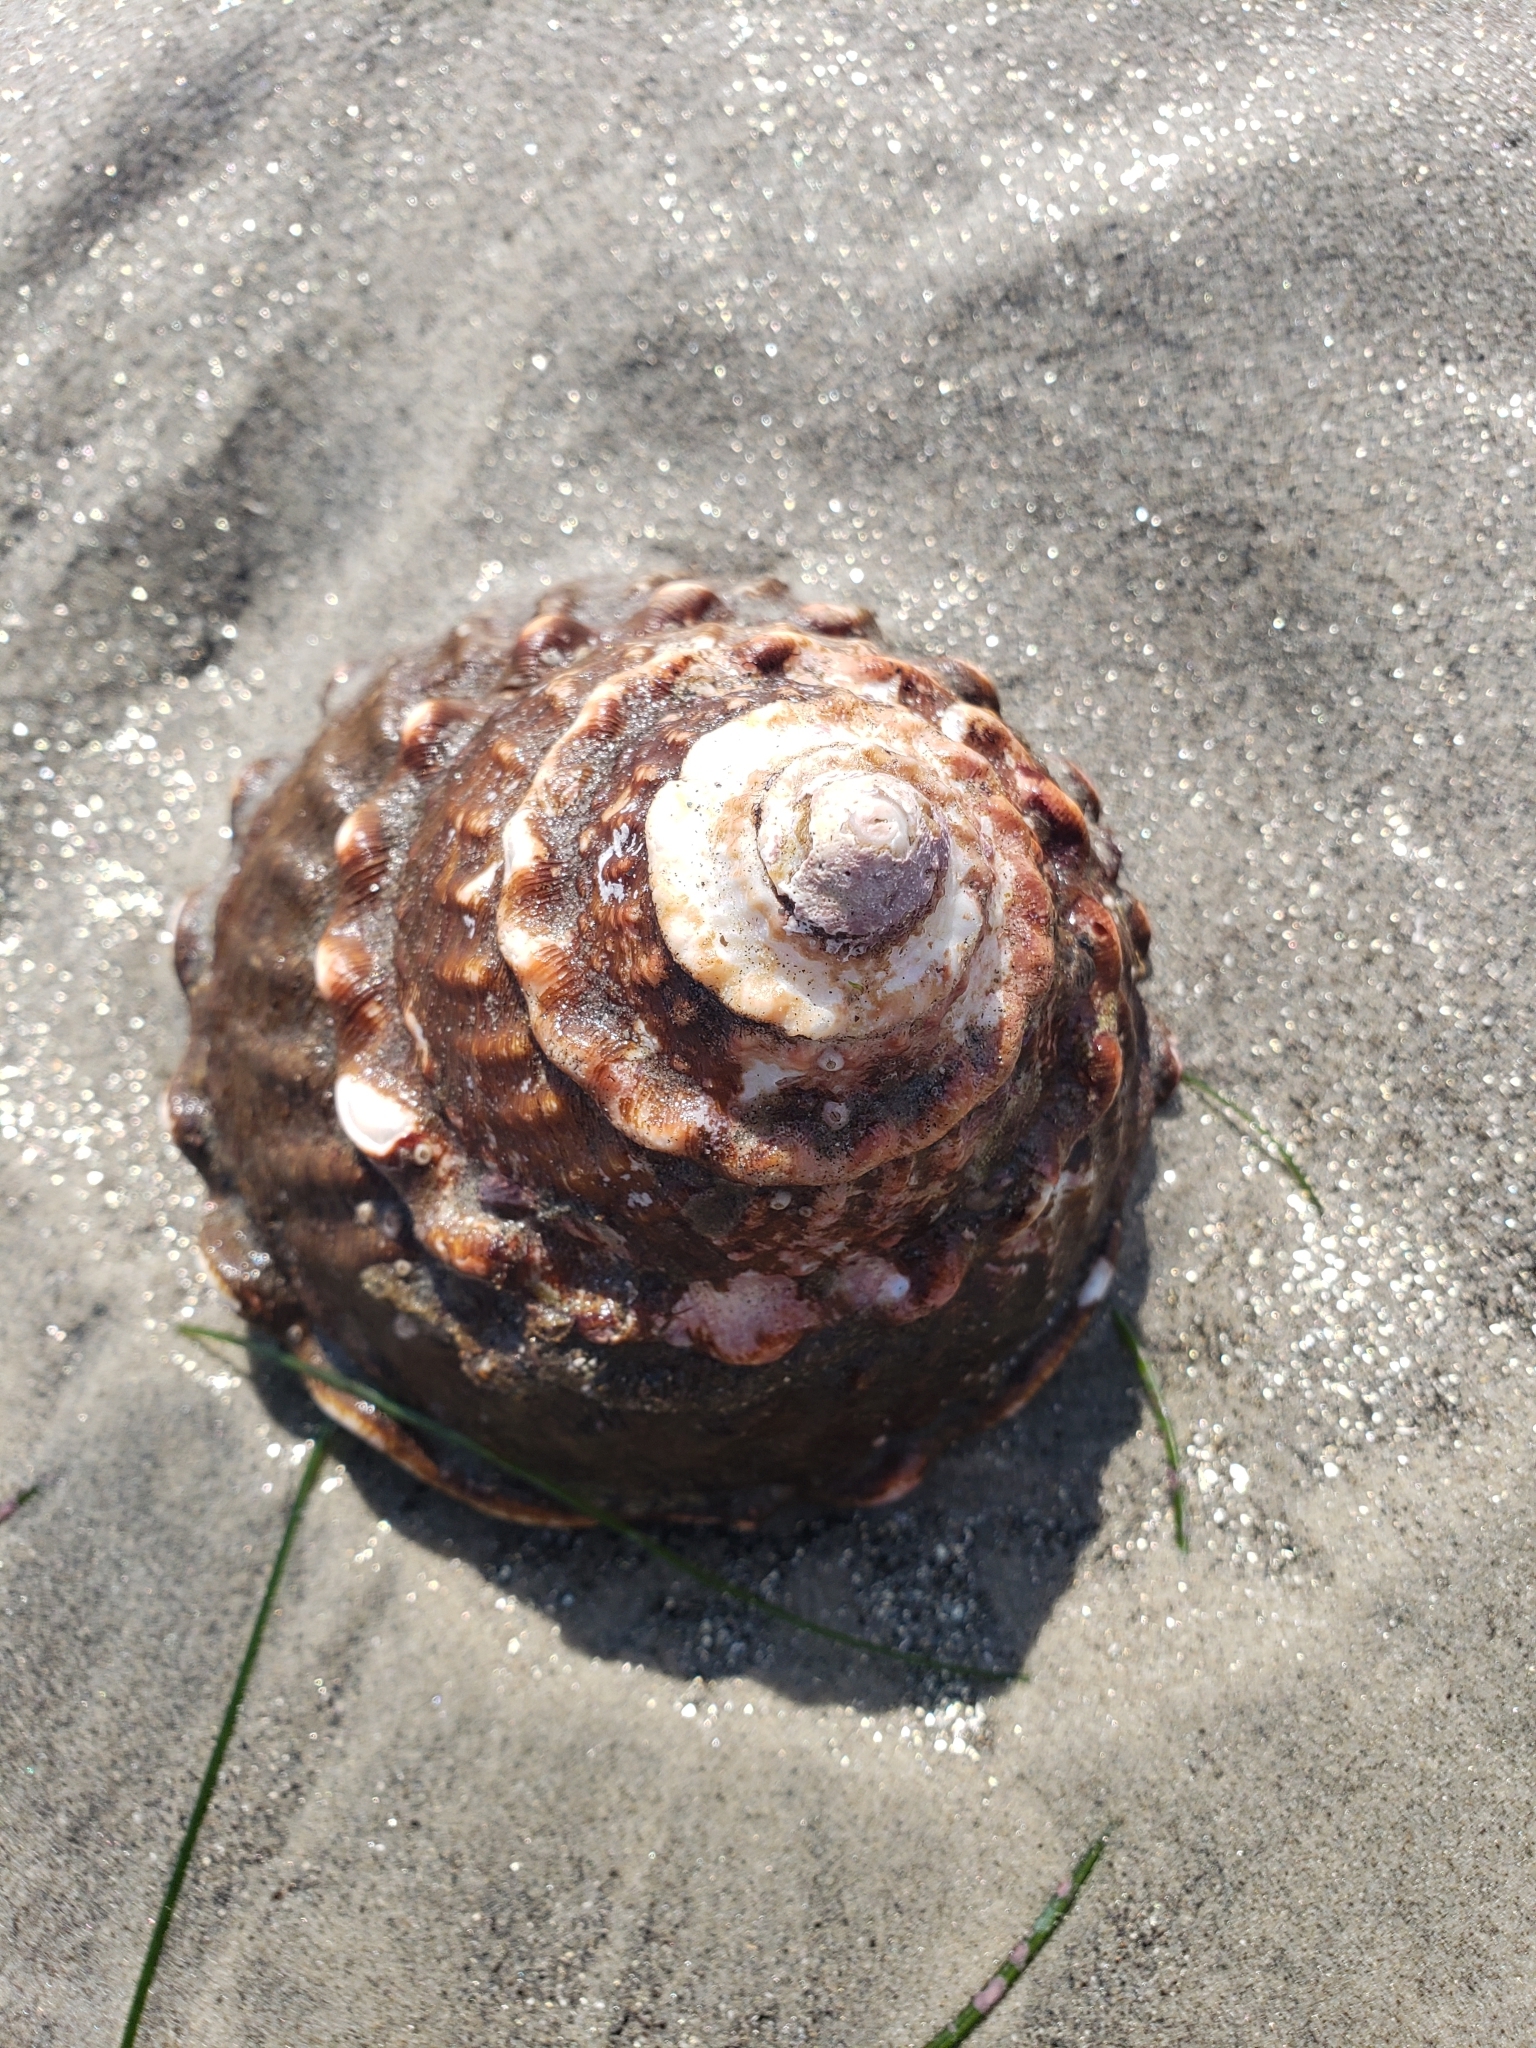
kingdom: Animalia
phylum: Mollusca
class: Gastropoda
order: Trochida
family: Turbinidae
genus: Megastraea
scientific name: Megastraea undosa
